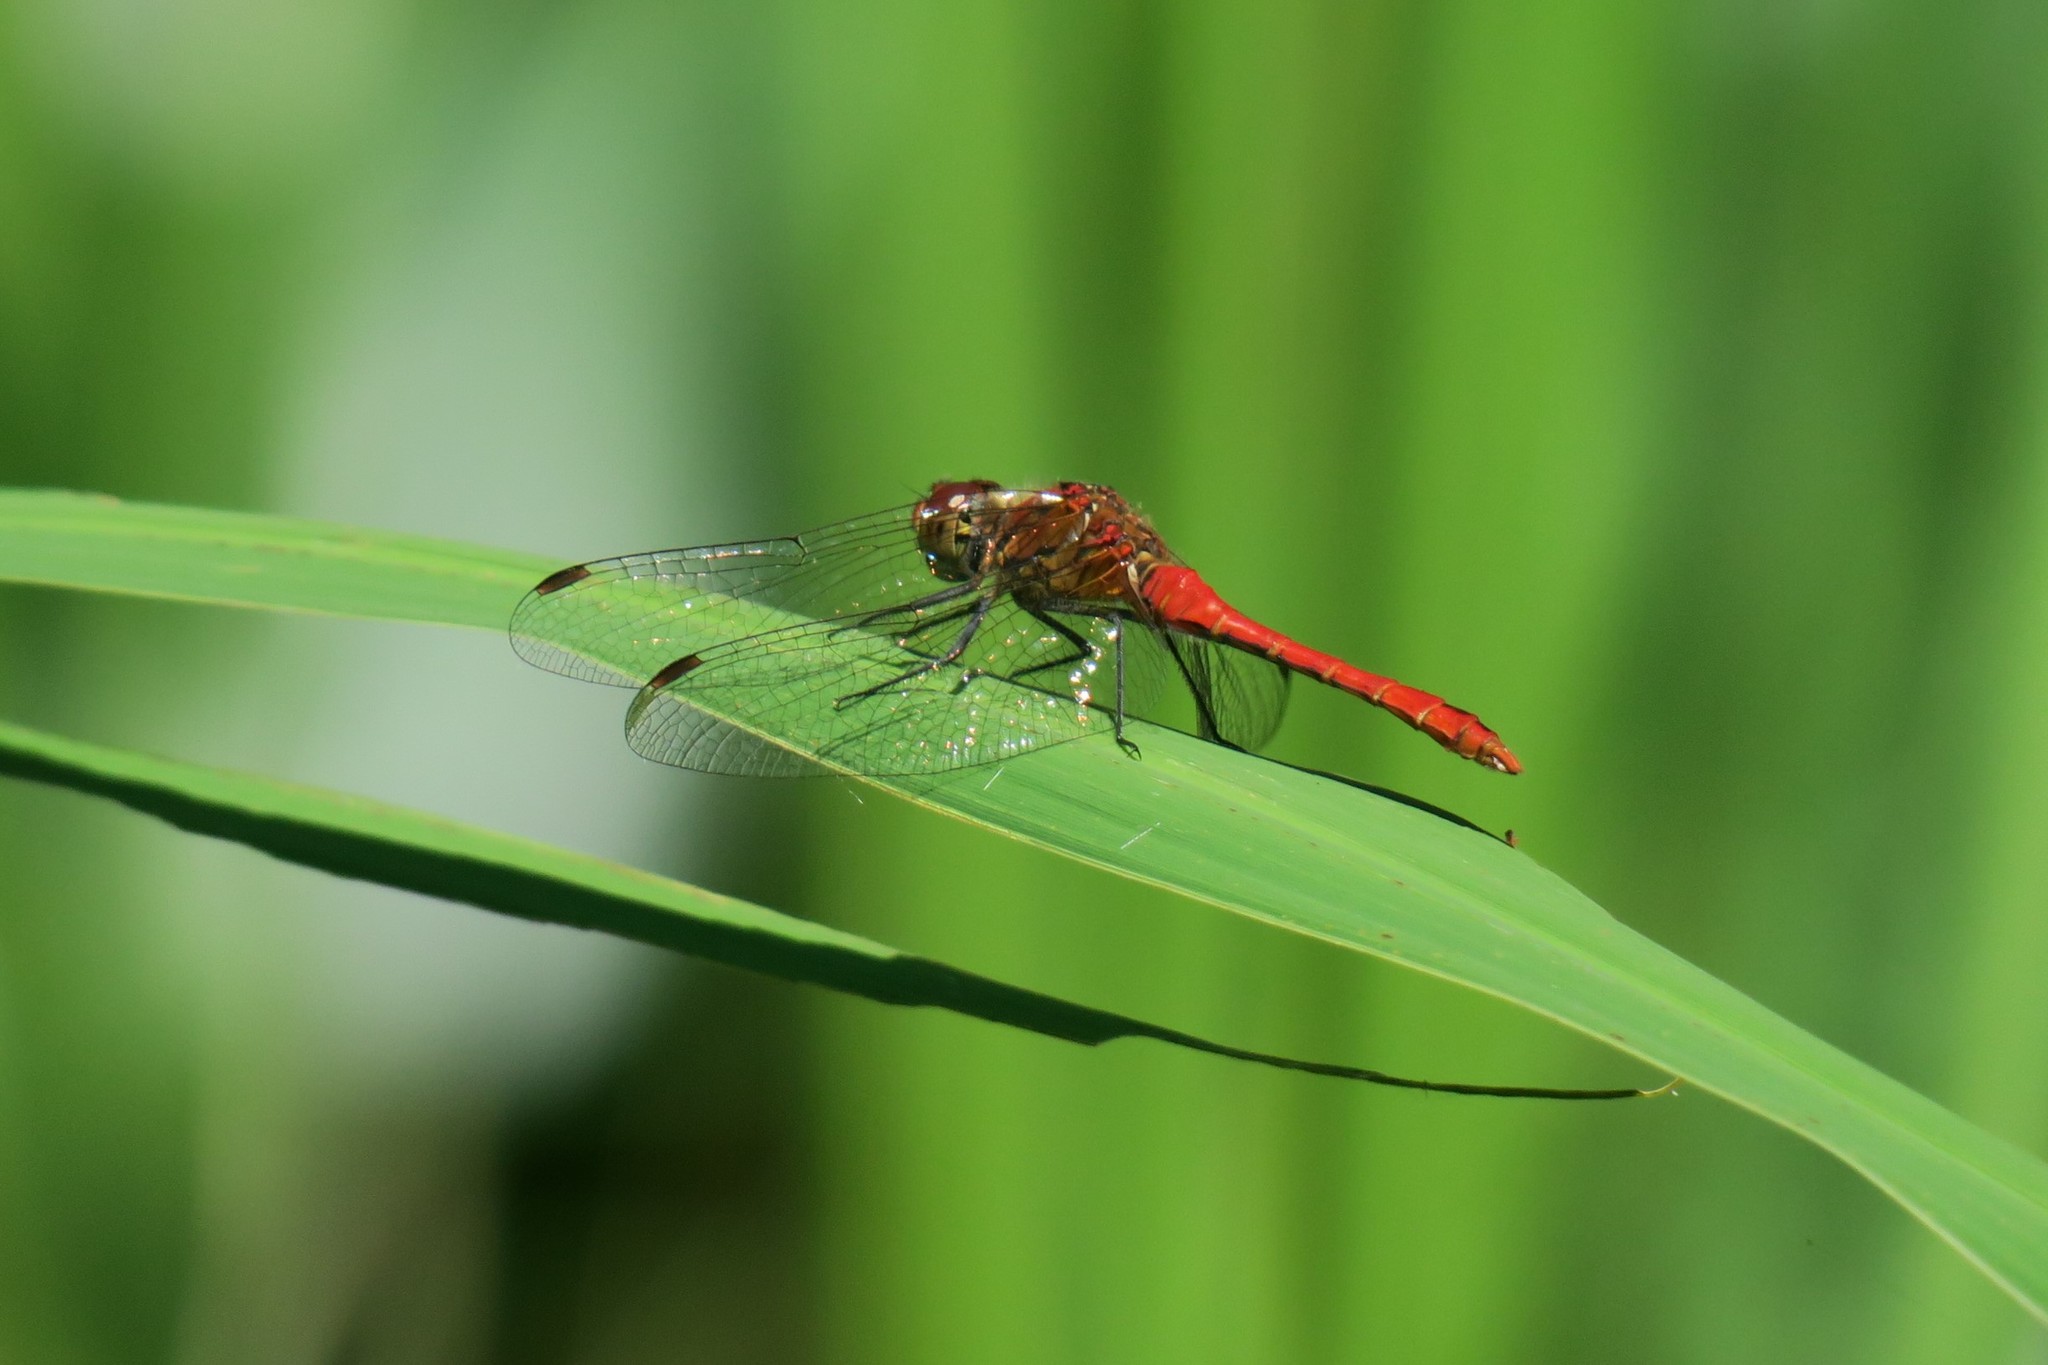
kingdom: Animalia
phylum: Arthropoda
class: Insecta
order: Odonata
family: Libellulidae
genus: Sympetrum
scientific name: Sympetrum sanguineum
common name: Ruddy darter
